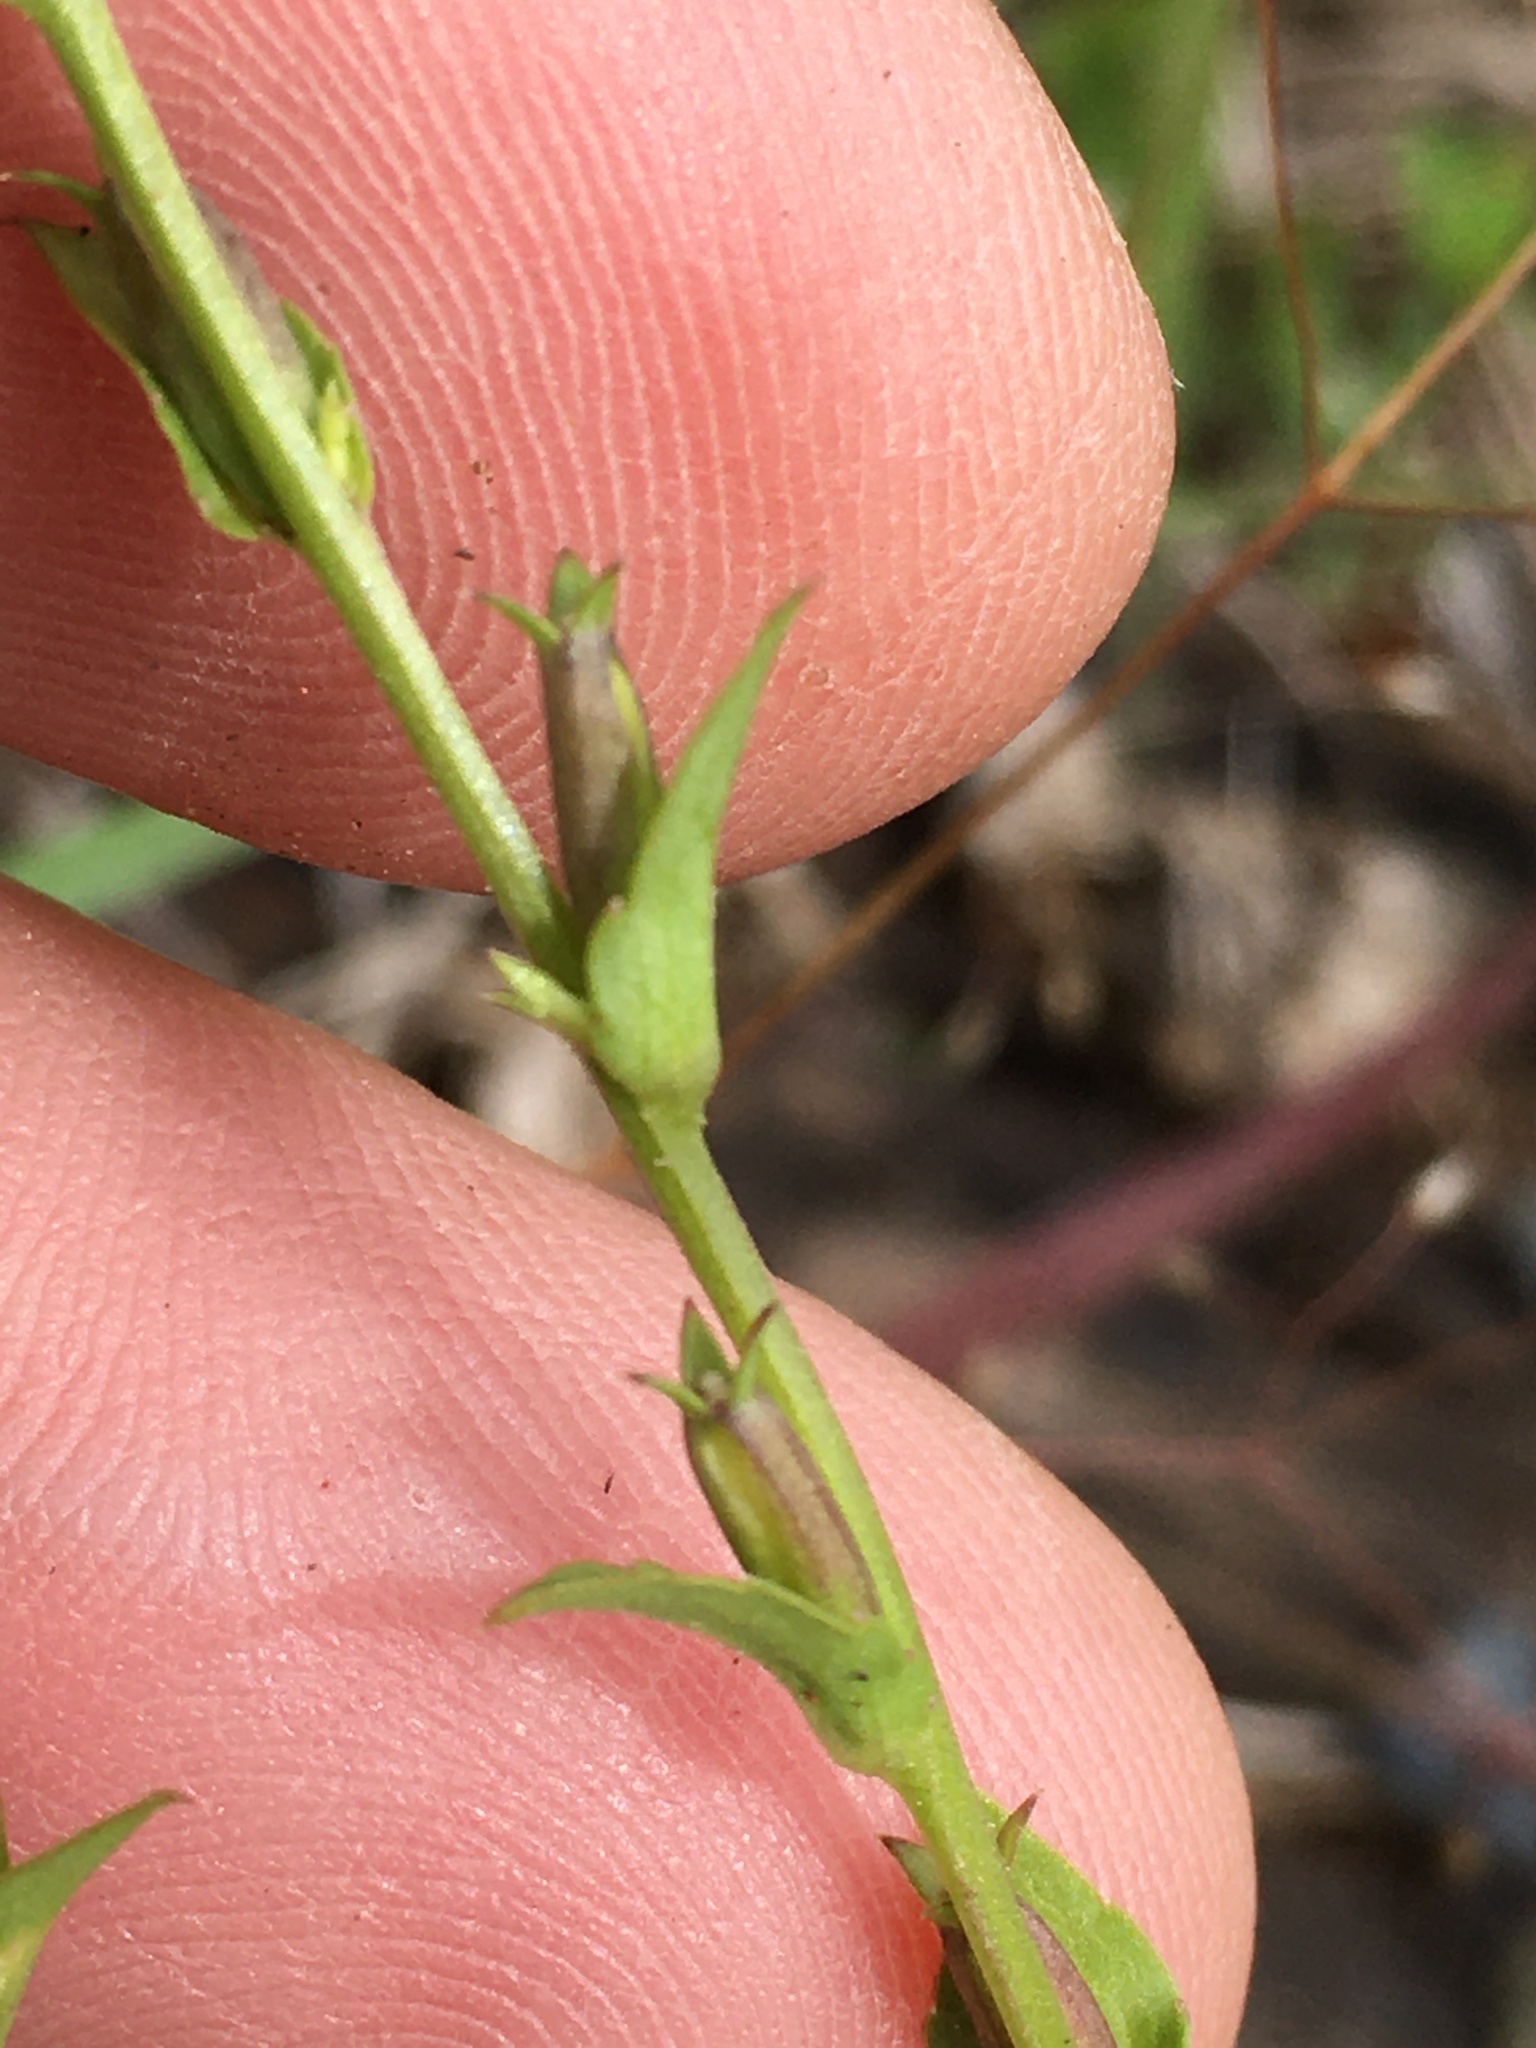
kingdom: Plantae
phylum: Tracheophyta
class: Magnoliopsida
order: Asterales
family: Campanulaceae
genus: Triodanis
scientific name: Triodanis biflora
